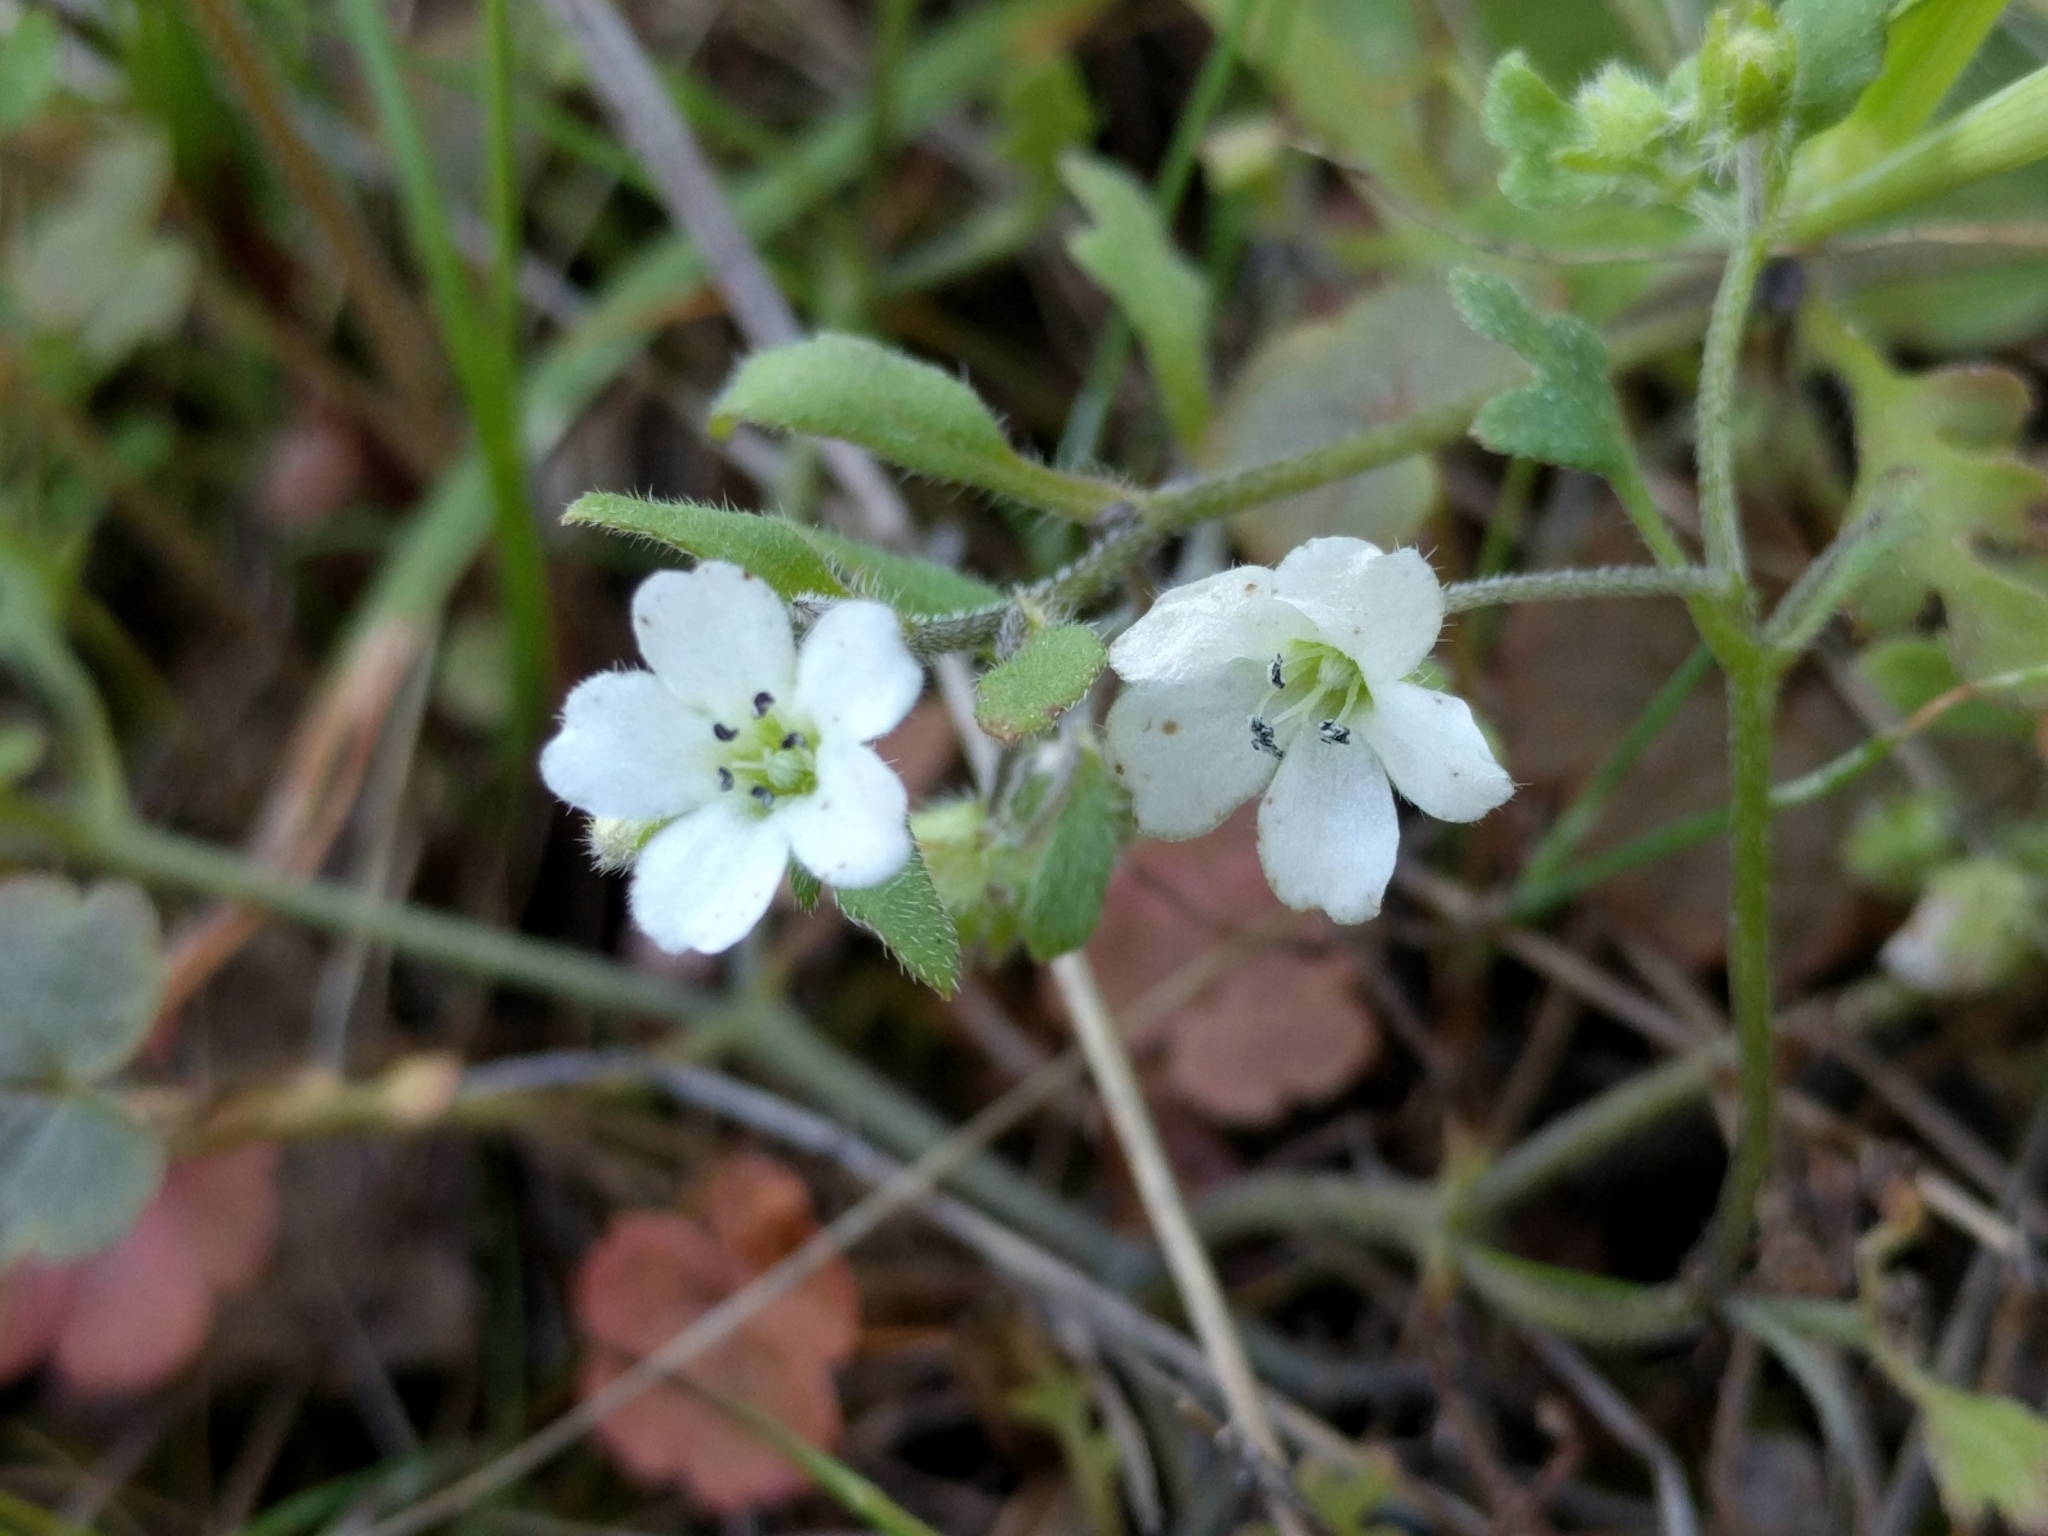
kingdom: Plantae
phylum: Tracheophyta
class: Magnoliopsida
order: Boraginales
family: Hydrophyllaceae
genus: Nemophila
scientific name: Nemophila heterophylla
